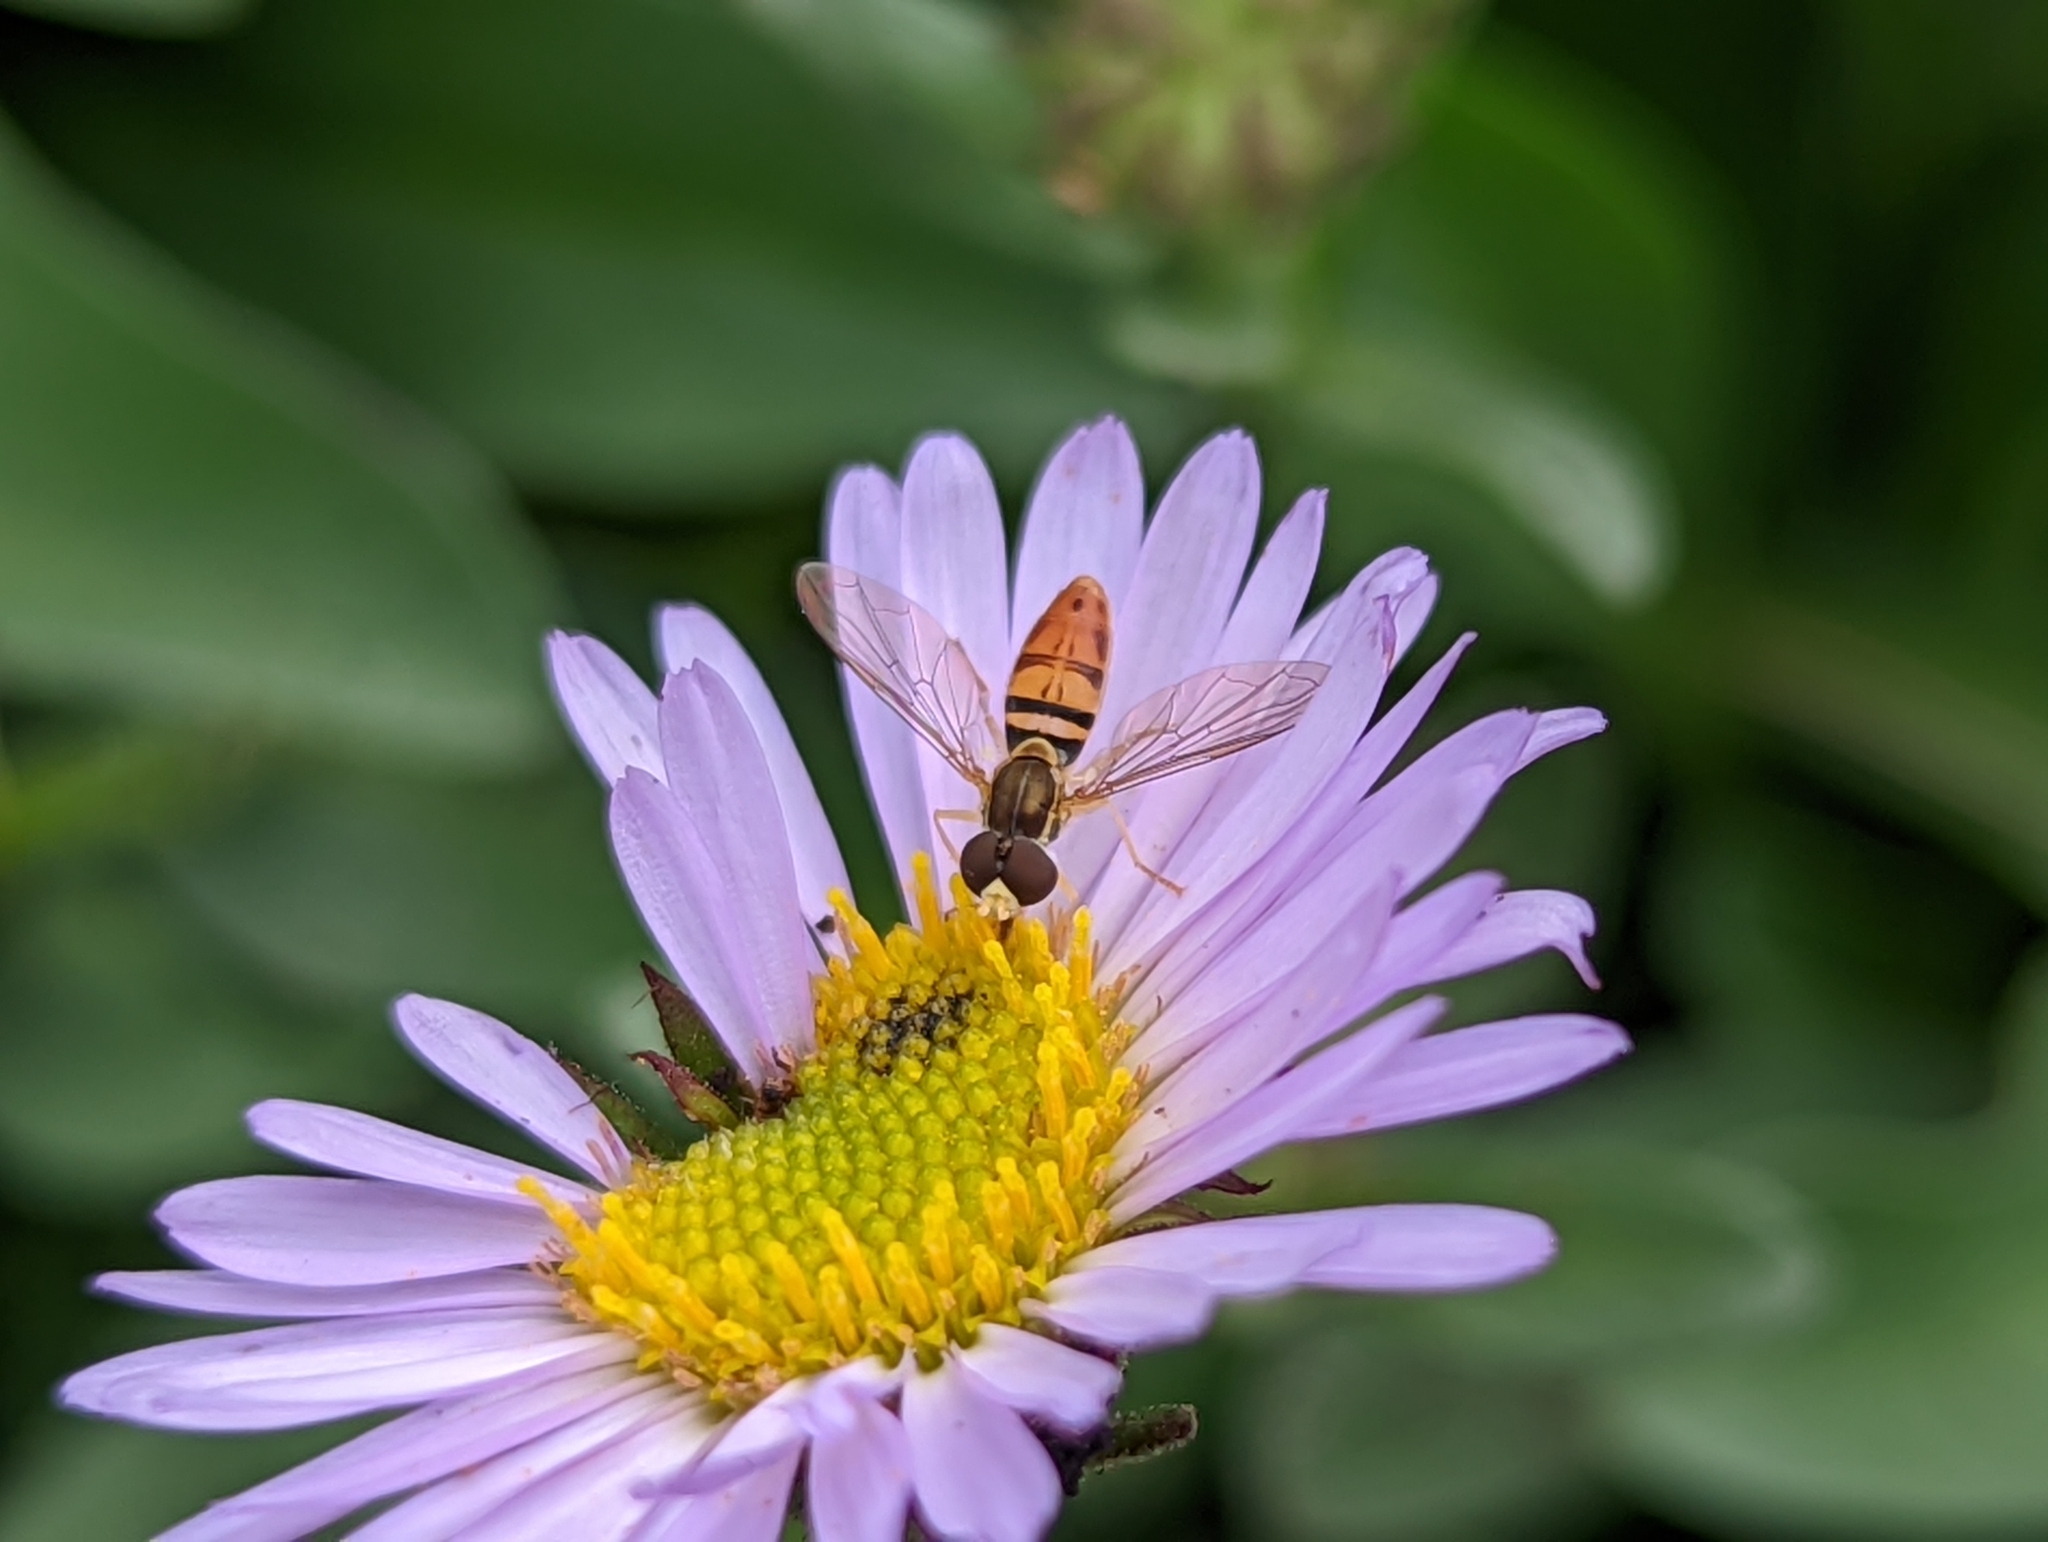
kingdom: Animalia
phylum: Arthropoda
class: Insecta
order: Diptera
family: Syrphidae
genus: Toxomerus
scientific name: Toxomerus marginatus
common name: Syrphid fly
